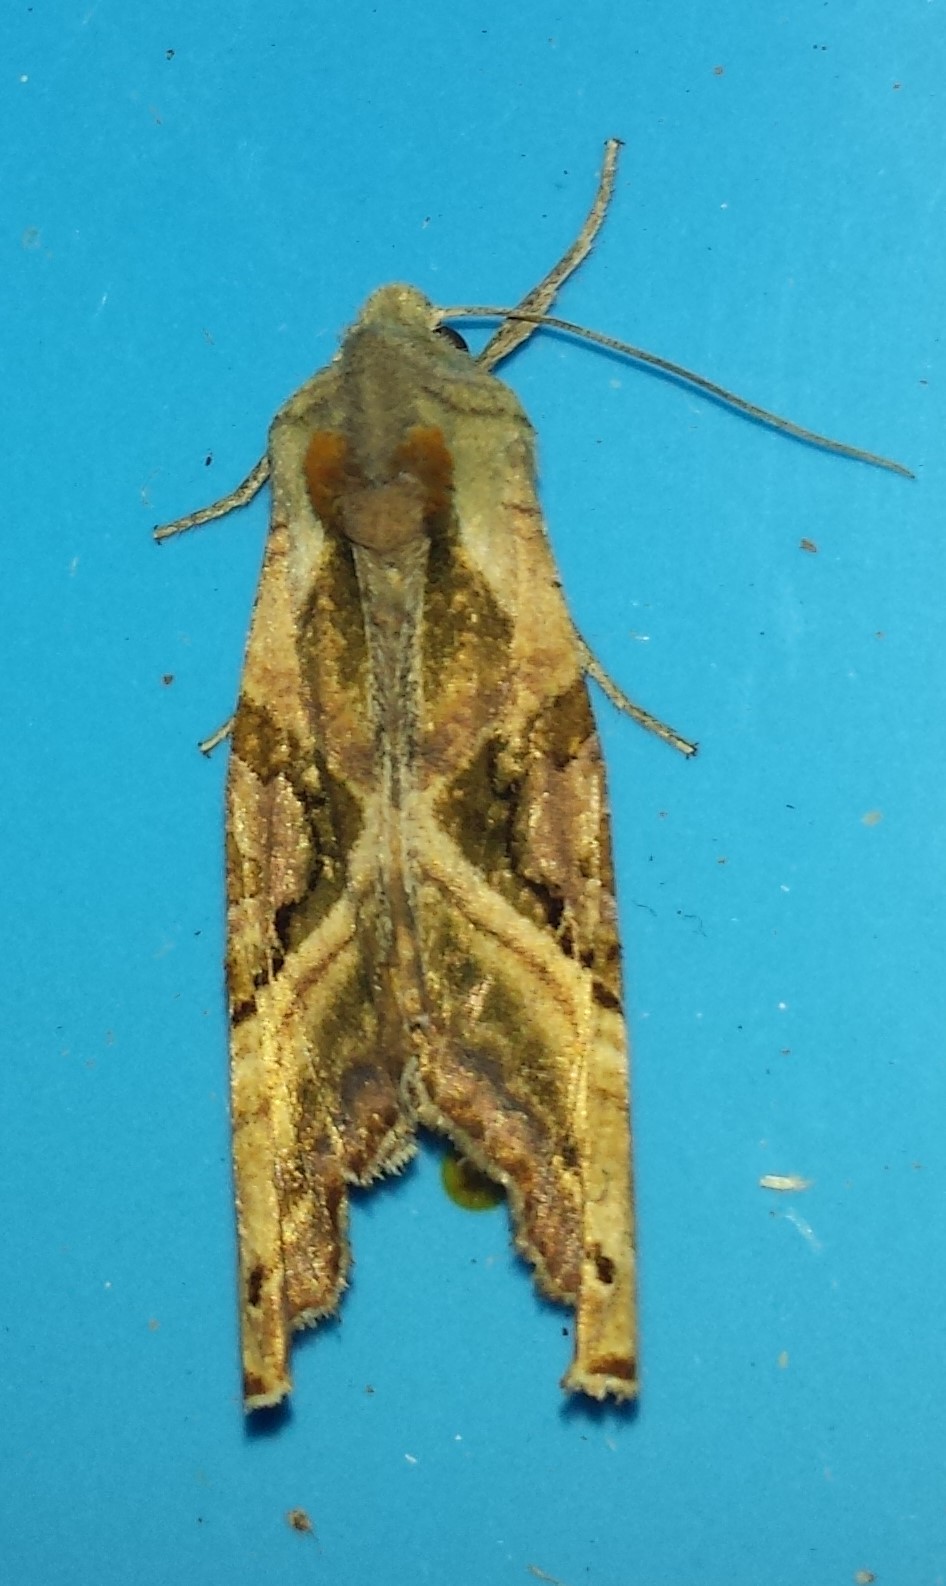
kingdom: Animalia
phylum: Arthropoda
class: Insecta
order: Lepidoptera
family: Noctuidae
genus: Phlogophora
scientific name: Phlogophora iris
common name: Olive angle shades
